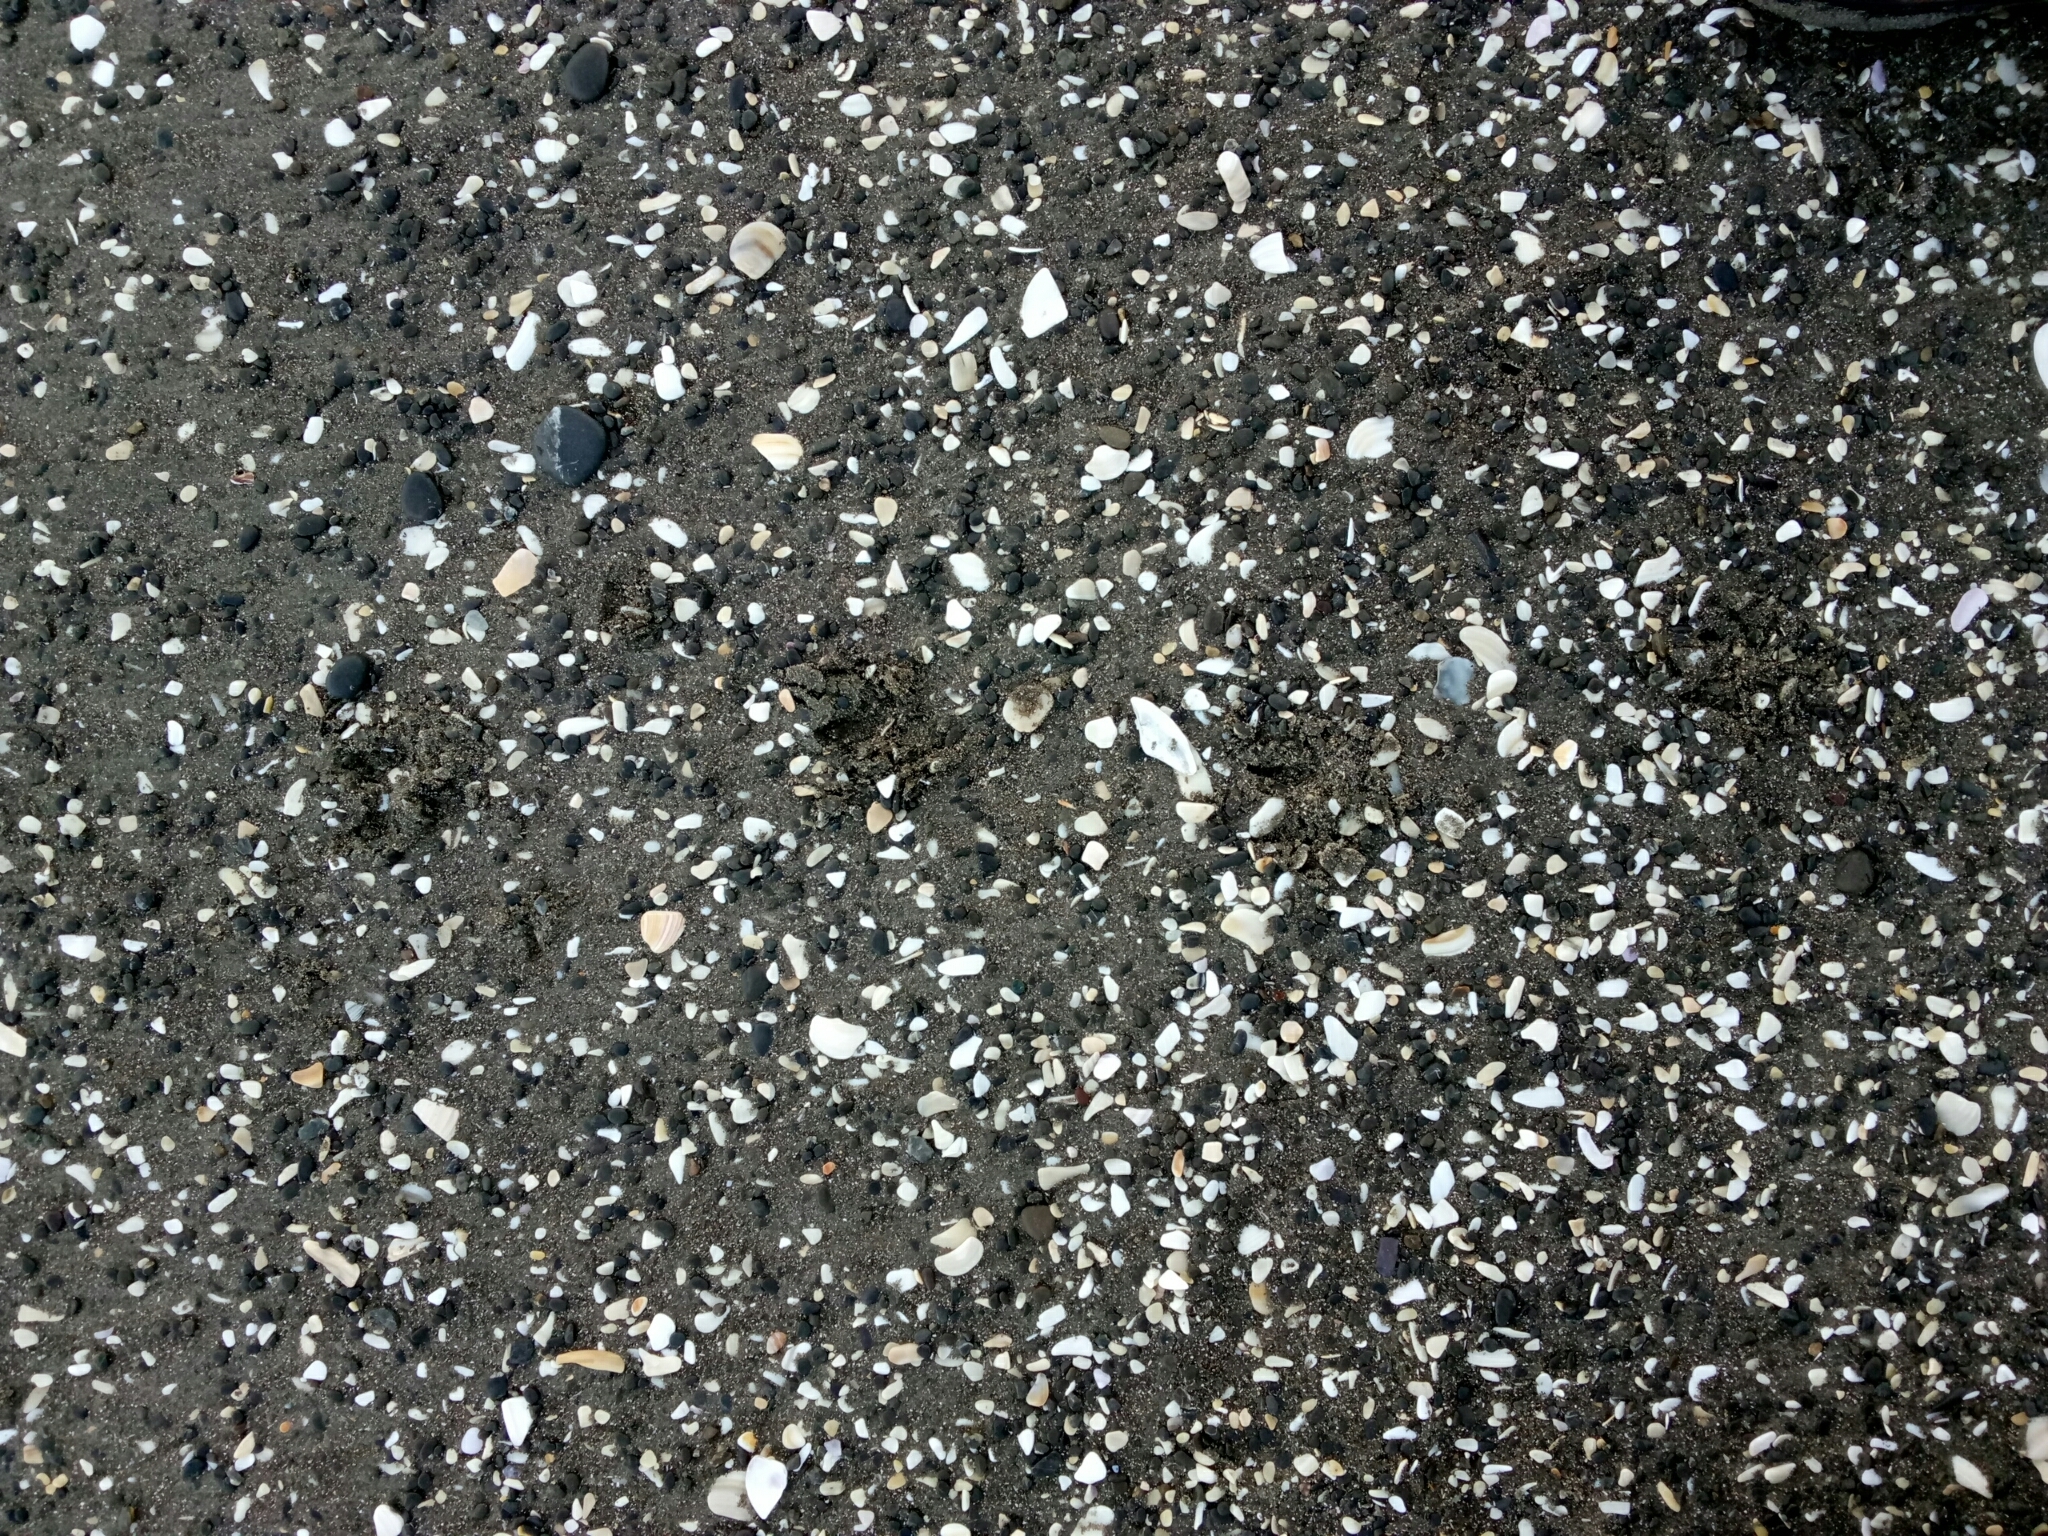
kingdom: Animalia
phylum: Chordata
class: Aves
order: Sphenisciformes
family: Spheniscidae
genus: Eudyptula
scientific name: Eudyptula minor
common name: Little penguin
